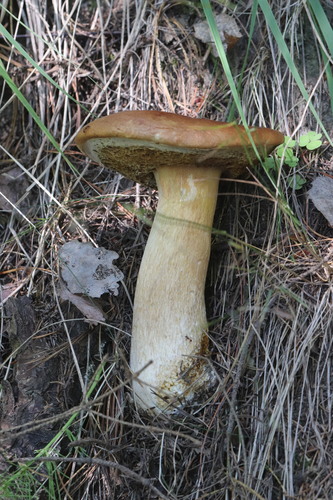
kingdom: Fungi
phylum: Basidiomycota
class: Agaricomycetes
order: Boletales
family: Boletaceae
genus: Boletus
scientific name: Boletus edulis
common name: Cep
